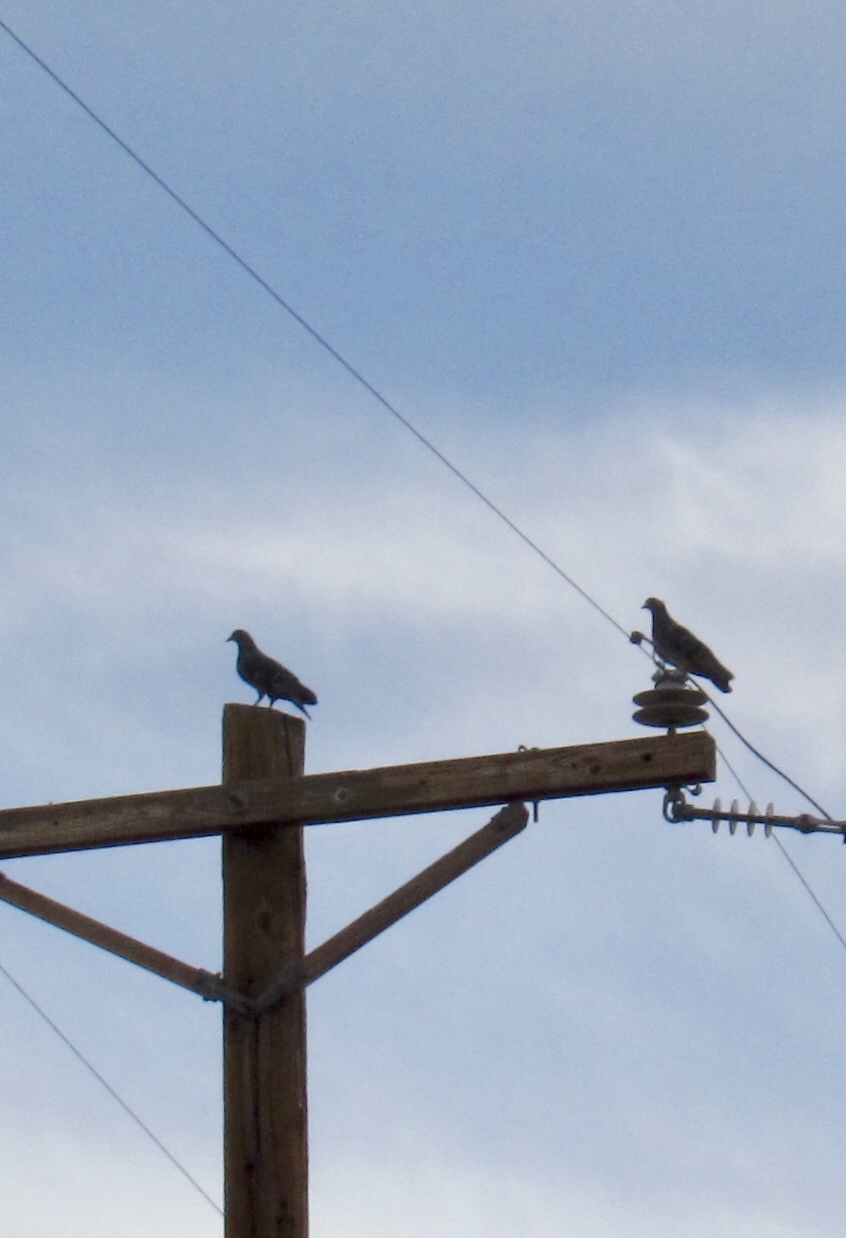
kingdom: Animalia
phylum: Chordata
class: Aves
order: Columbiformes
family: Columbidae
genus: Columba
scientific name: Columba livia
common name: Rock pigeon
